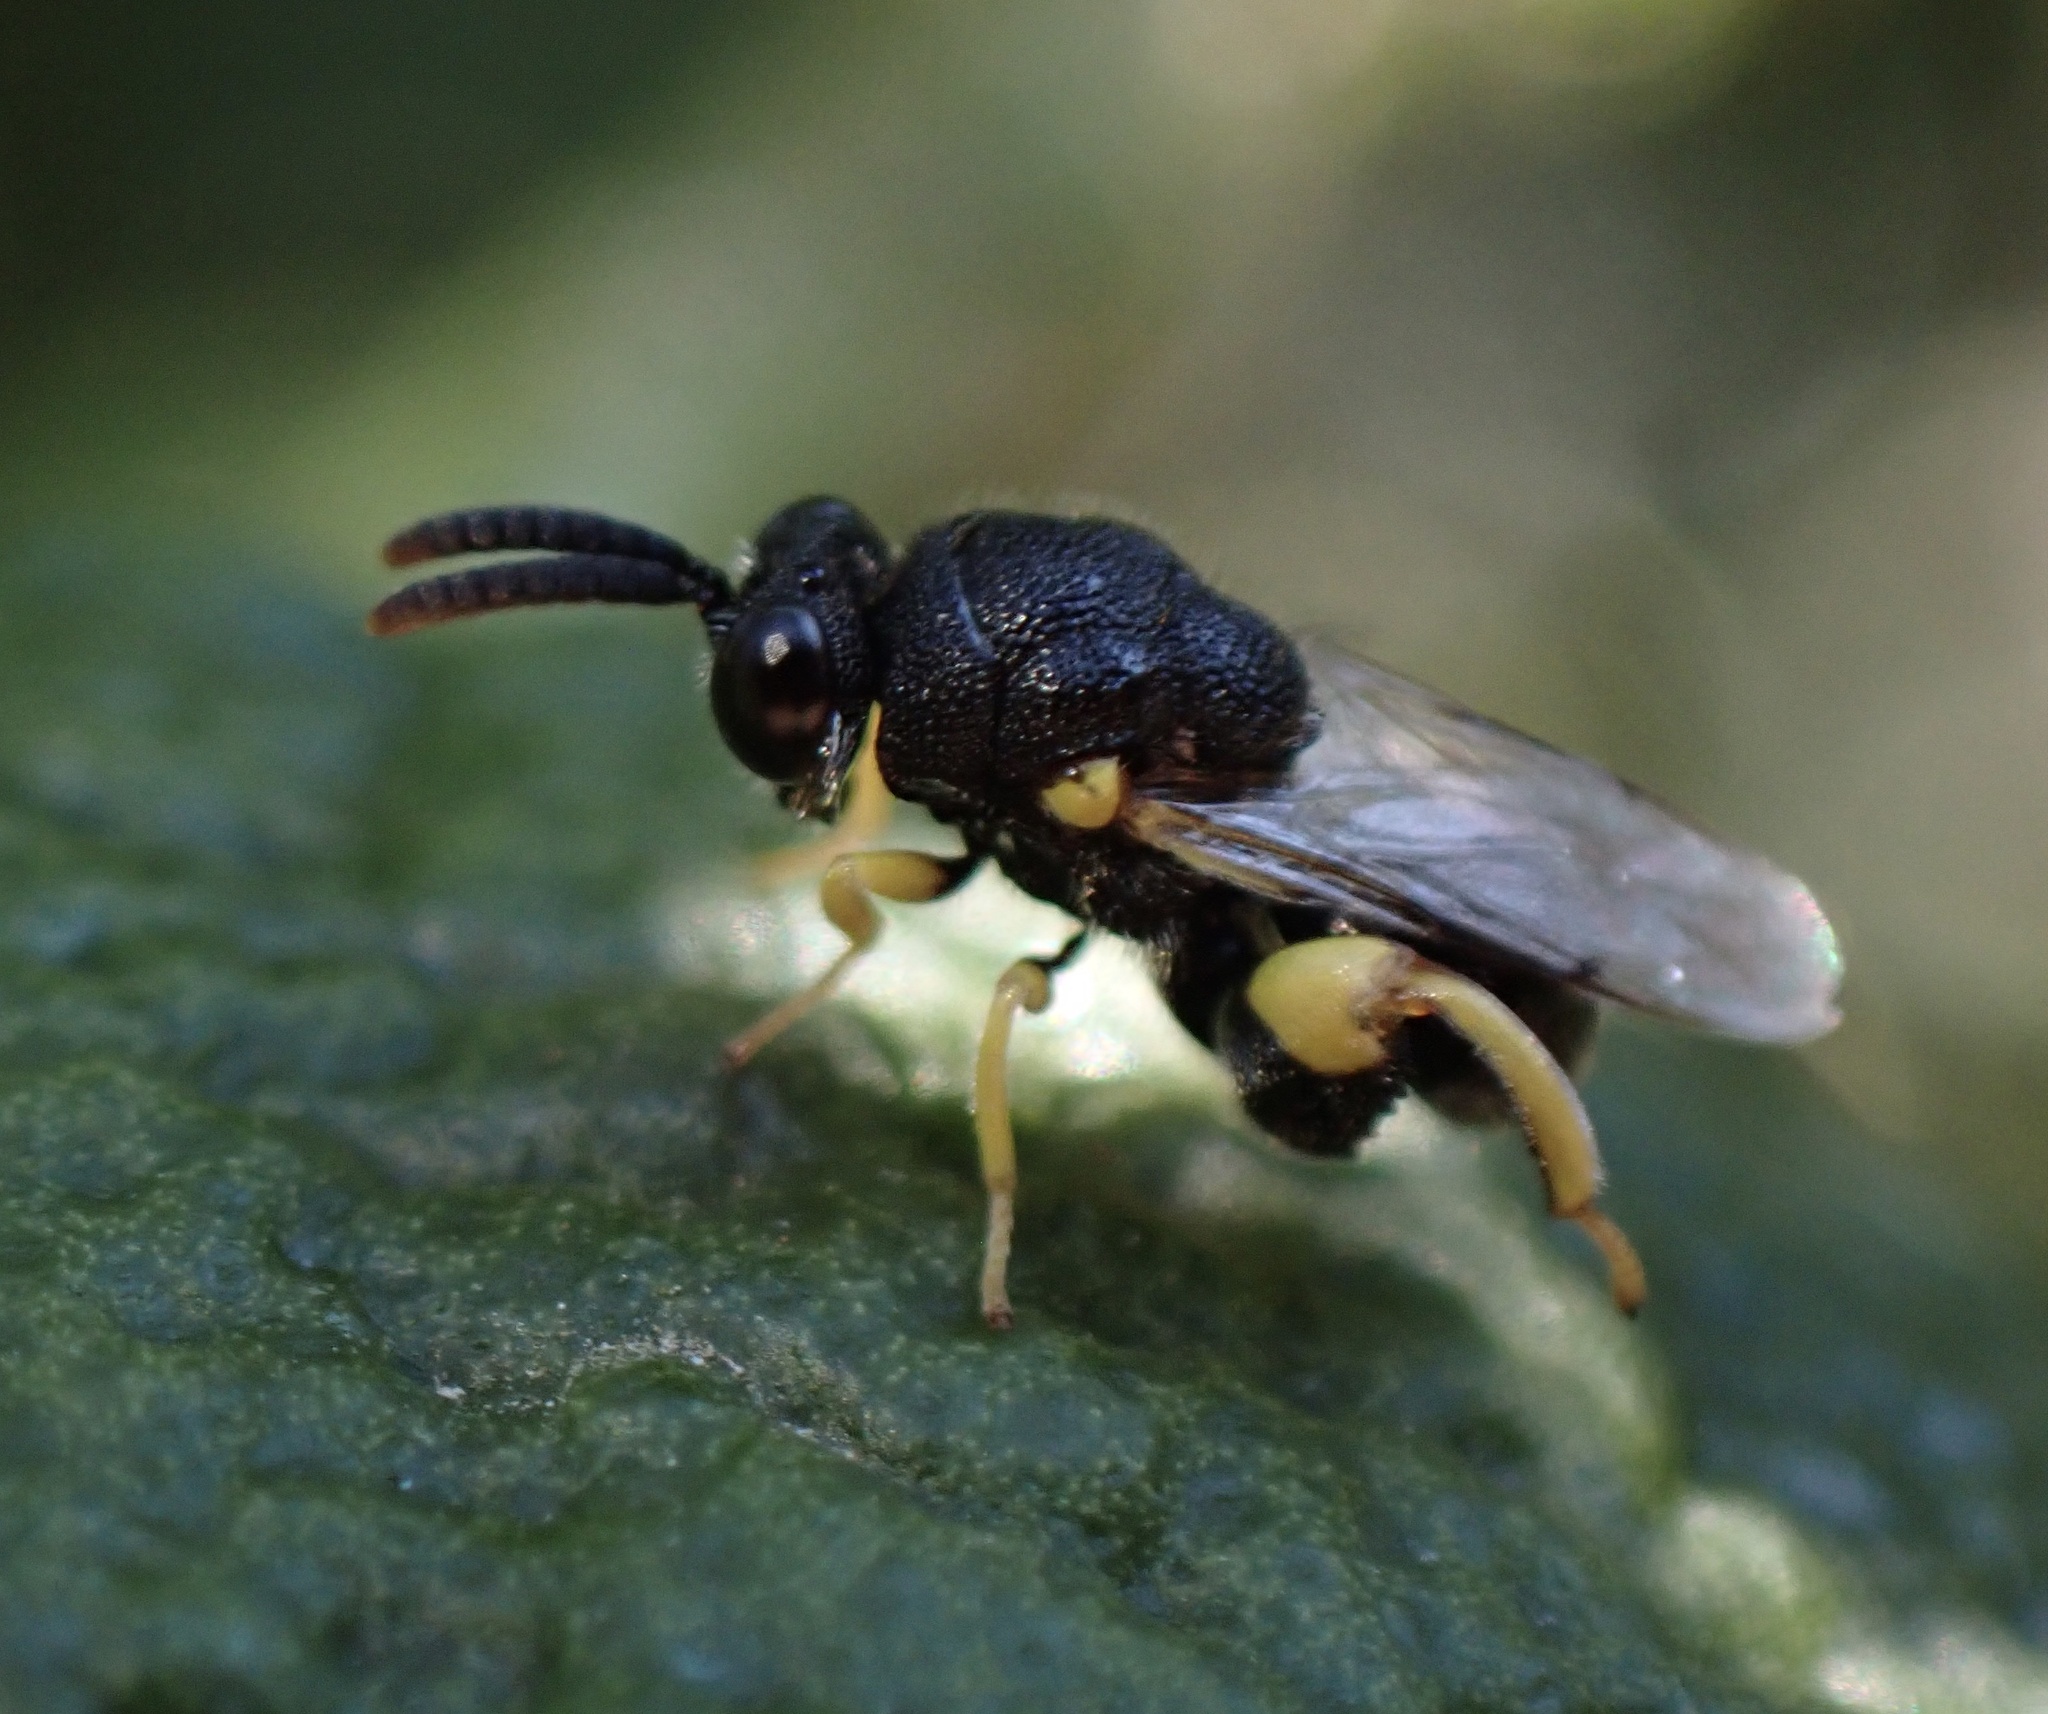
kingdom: Animalia
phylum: Arthropoda
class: Insecta
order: Hymenoptera
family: Chalcididae
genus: Brachymeria
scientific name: Brachymeria tibialis
